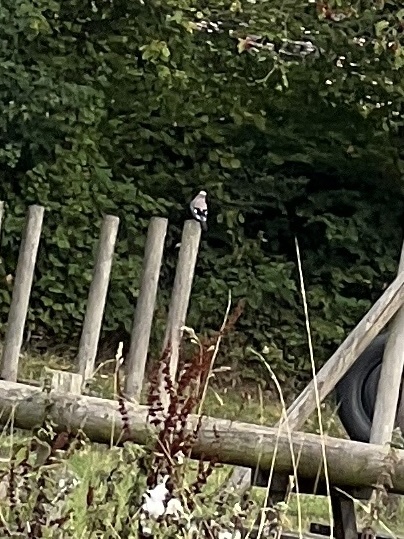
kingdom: Animalia
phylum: Chordata
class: Aves
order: Passeriformes
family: Corvidae
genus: Garrulus
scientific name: Garrulus glandarius
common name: Eurasian jay
